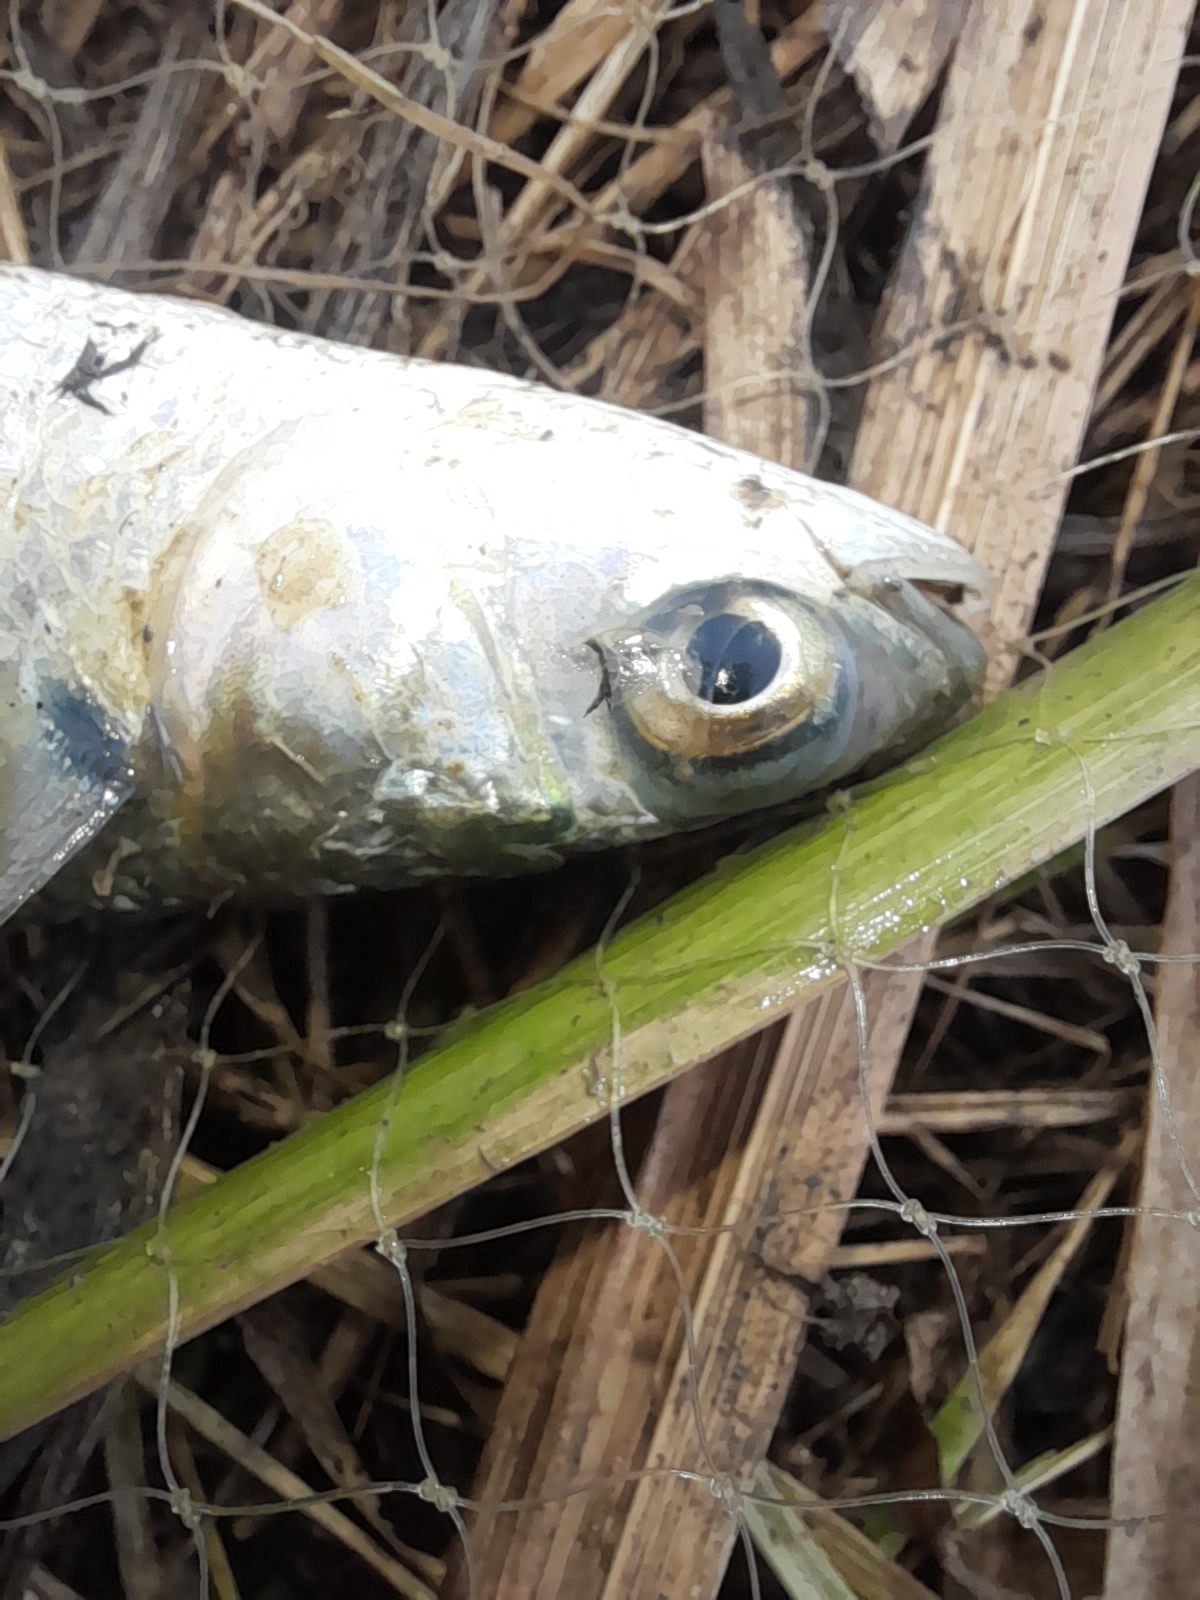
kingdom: Animalia
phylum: Chordata
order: Mugiliformes
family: Mugilidae
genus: Mugil
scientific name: Mugil cephalus
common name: Grey mullet
